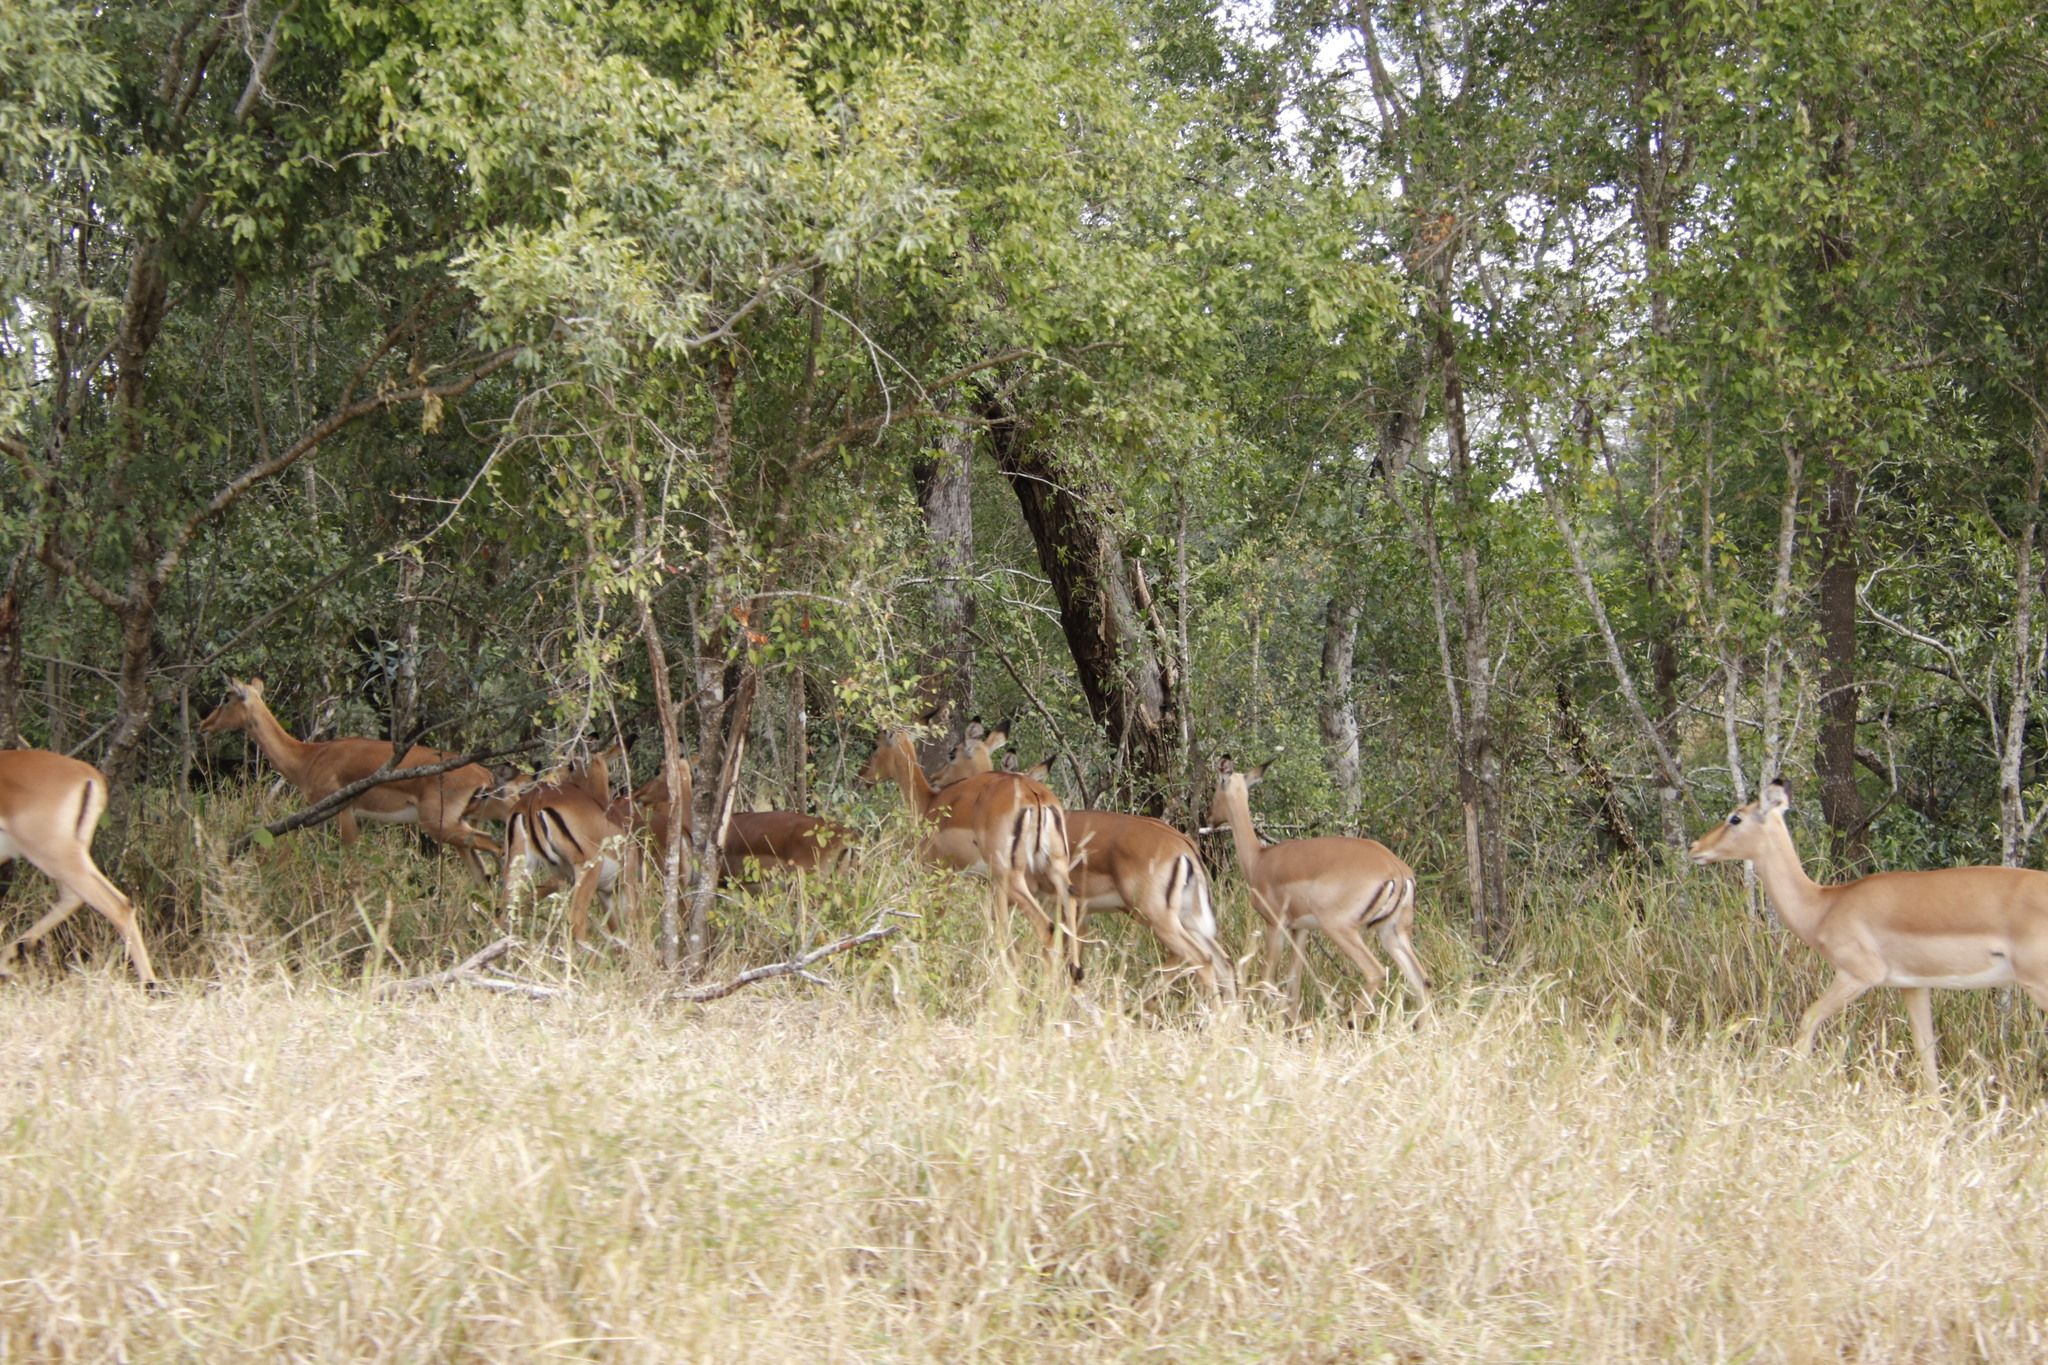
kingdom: Animalia
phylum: Chordata
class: Mammalia
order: Artiodactyla
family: Bovidae
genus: Aepyceros
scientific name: Aepyceros melampus
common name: Impala
